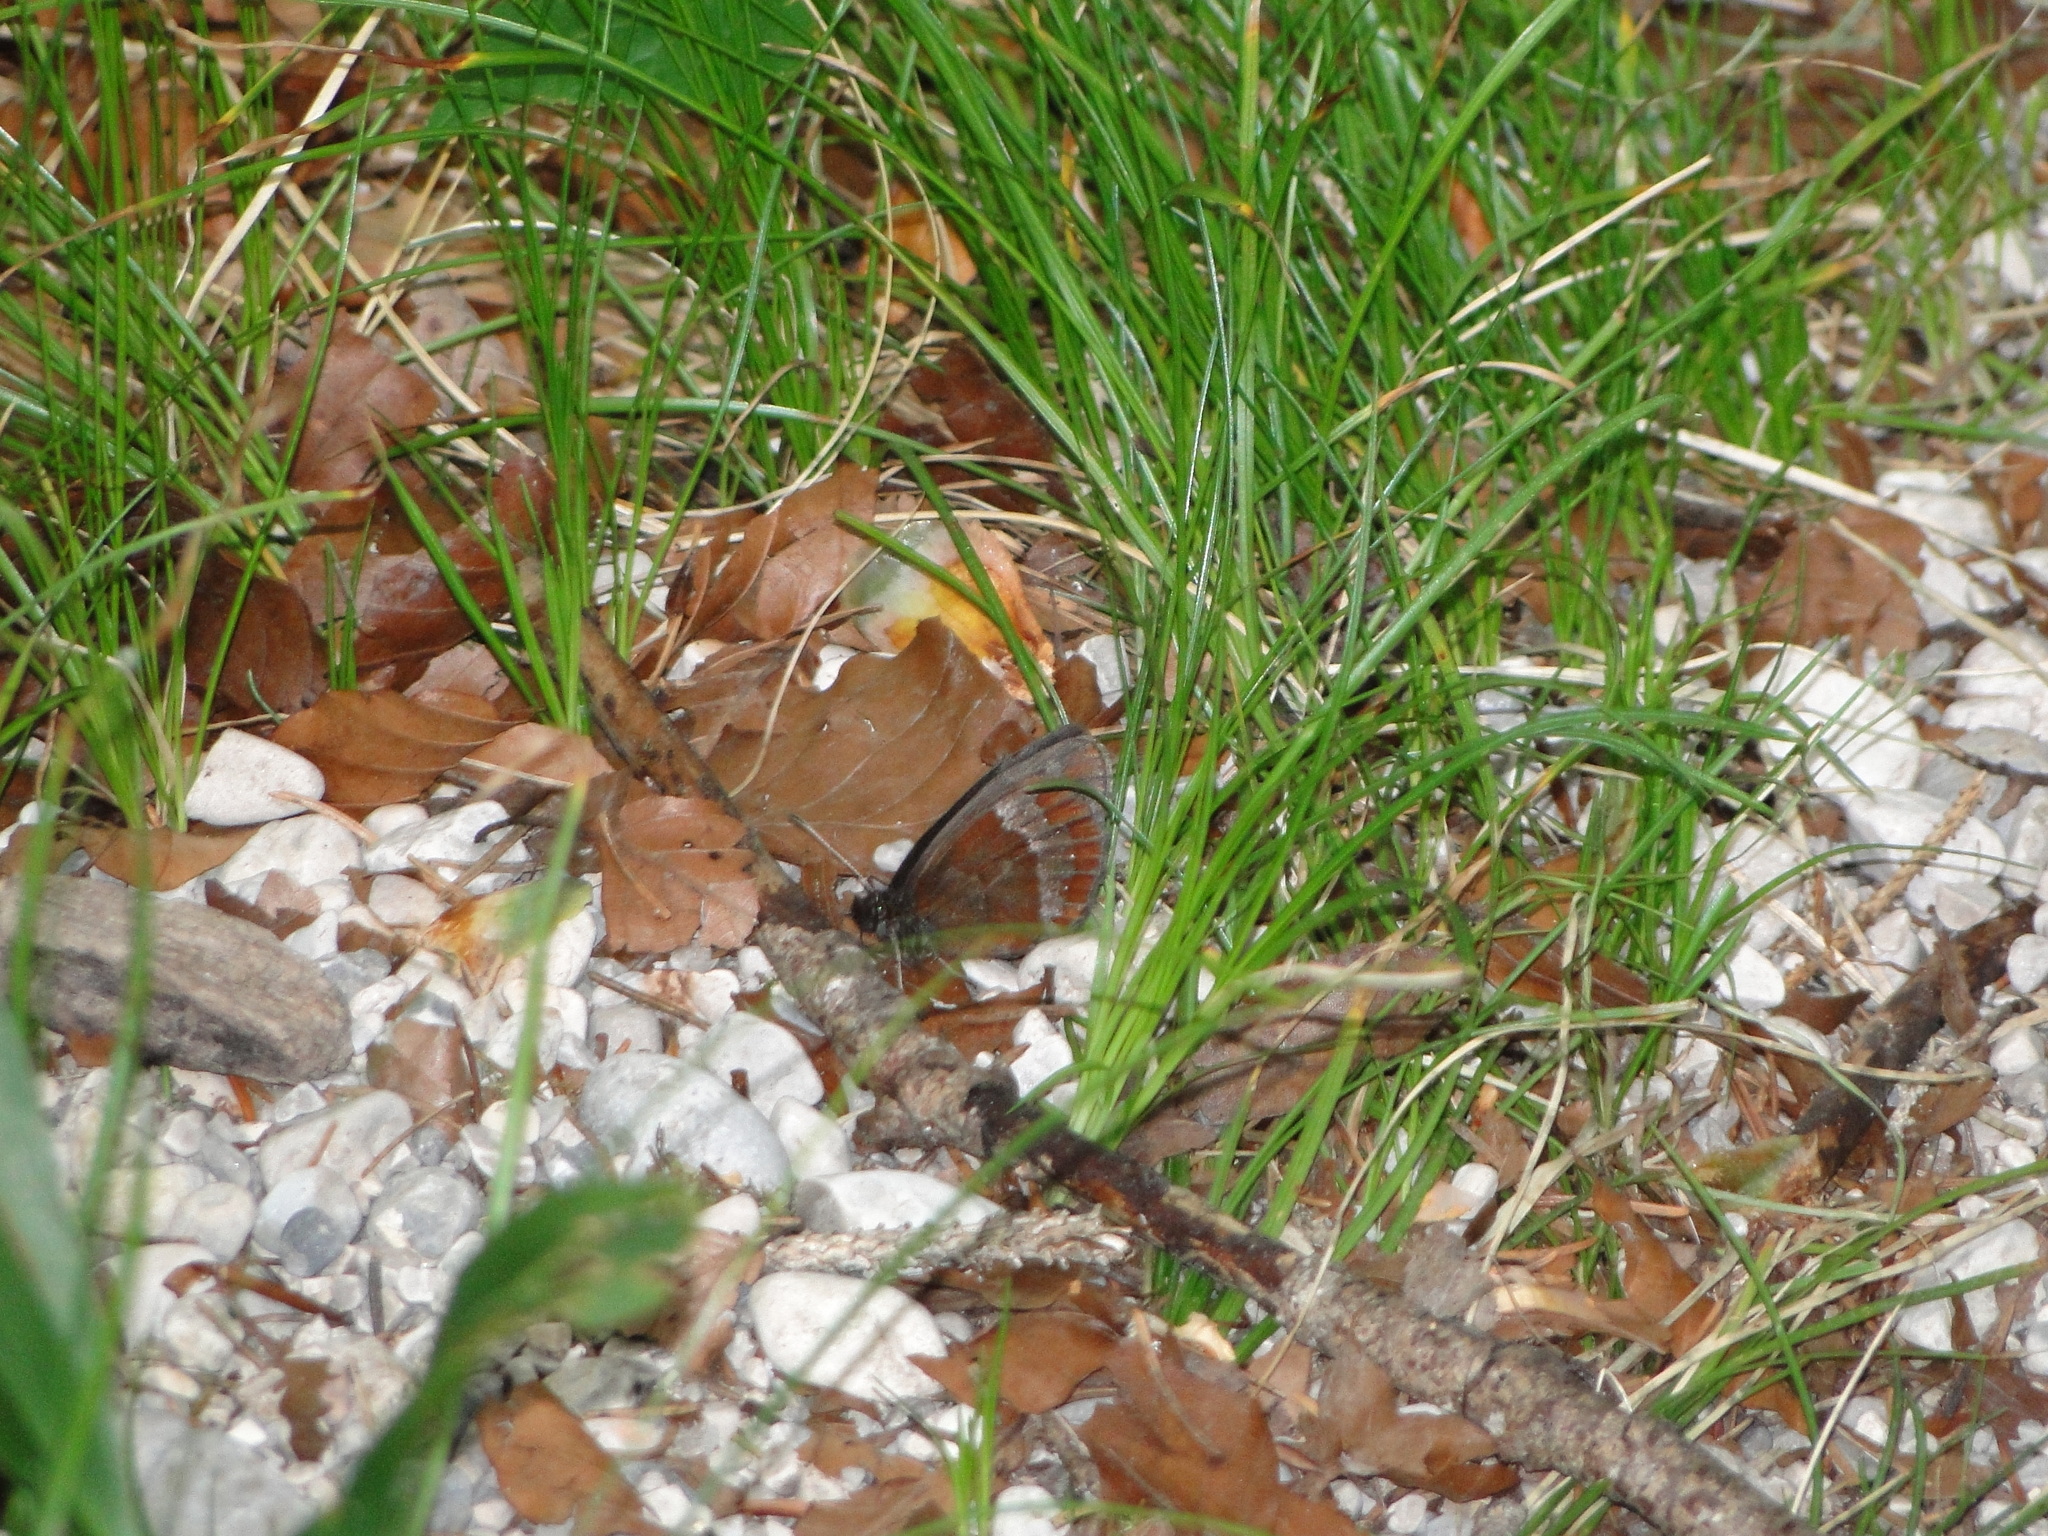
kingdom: Animalia
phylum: Arthropoda
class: Insecta
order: Lepidoptera
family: Nymphalidae
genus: Erebia
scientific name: Erebia aethiops
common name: Scotch argus
